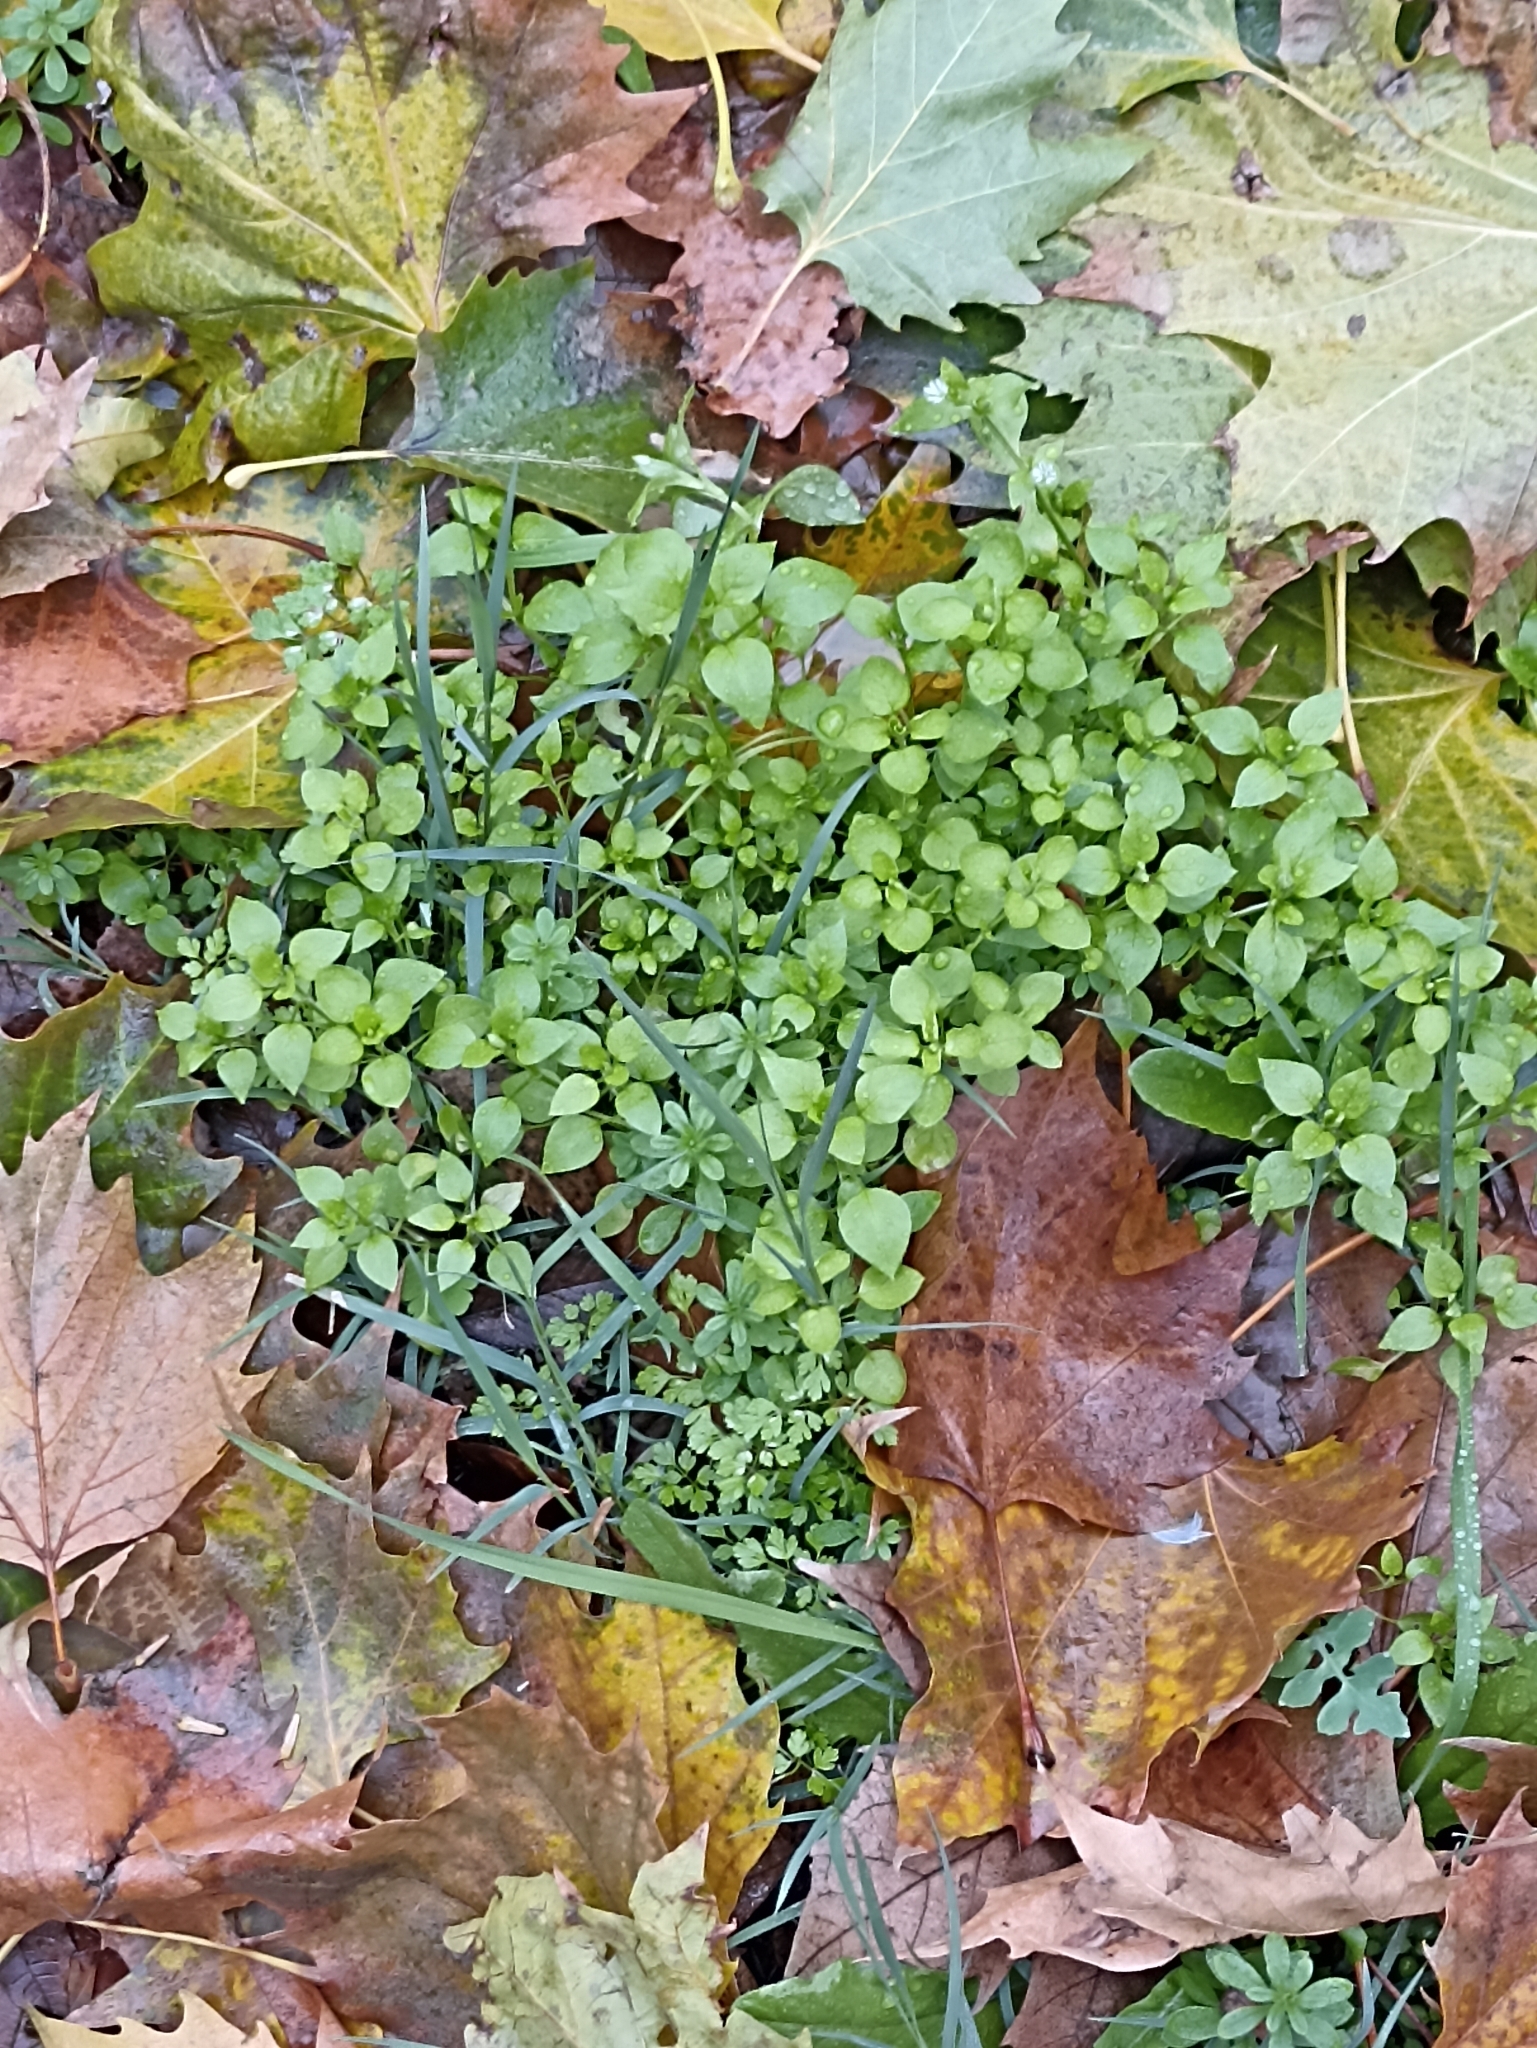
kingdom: Plantae
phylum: Tracheophyta
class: Magnoliopsida
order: Caryophyllales
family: Caryophyllaceae
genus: Stellaria
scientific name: Stellaria media
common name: Common chickweed
